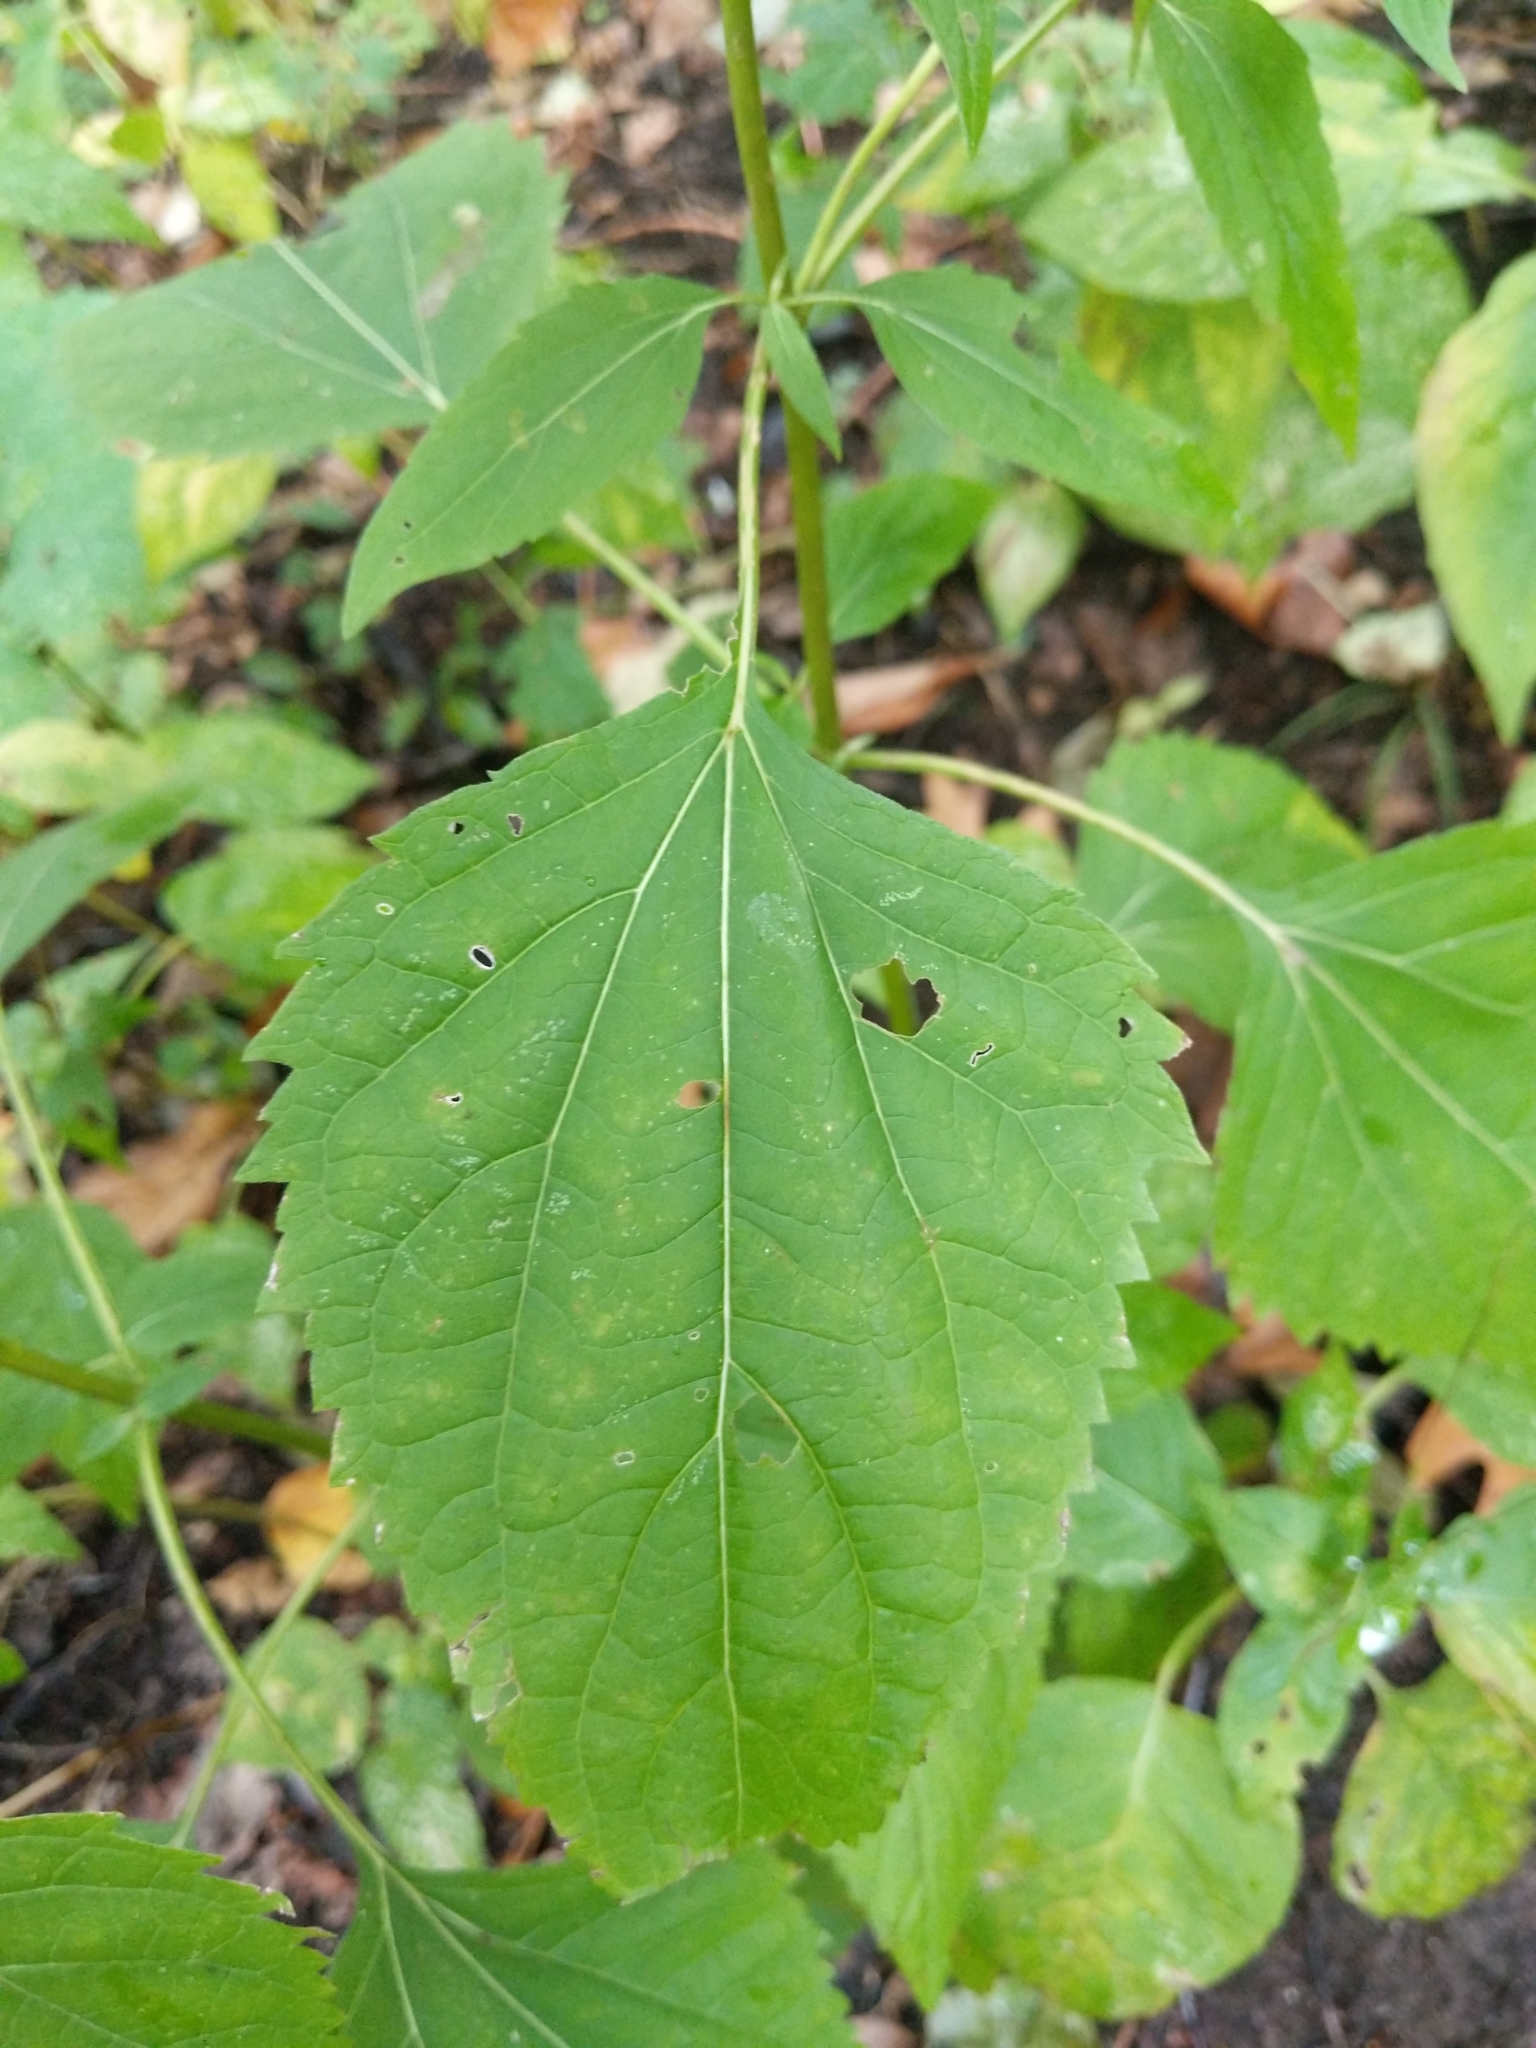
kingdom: Plantae
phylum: Tracheophyta
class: Magnoliopsida
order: Asterales
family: Asteraceae
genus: Ageratina
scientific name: Ageratina altissima
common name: White snakeroot
